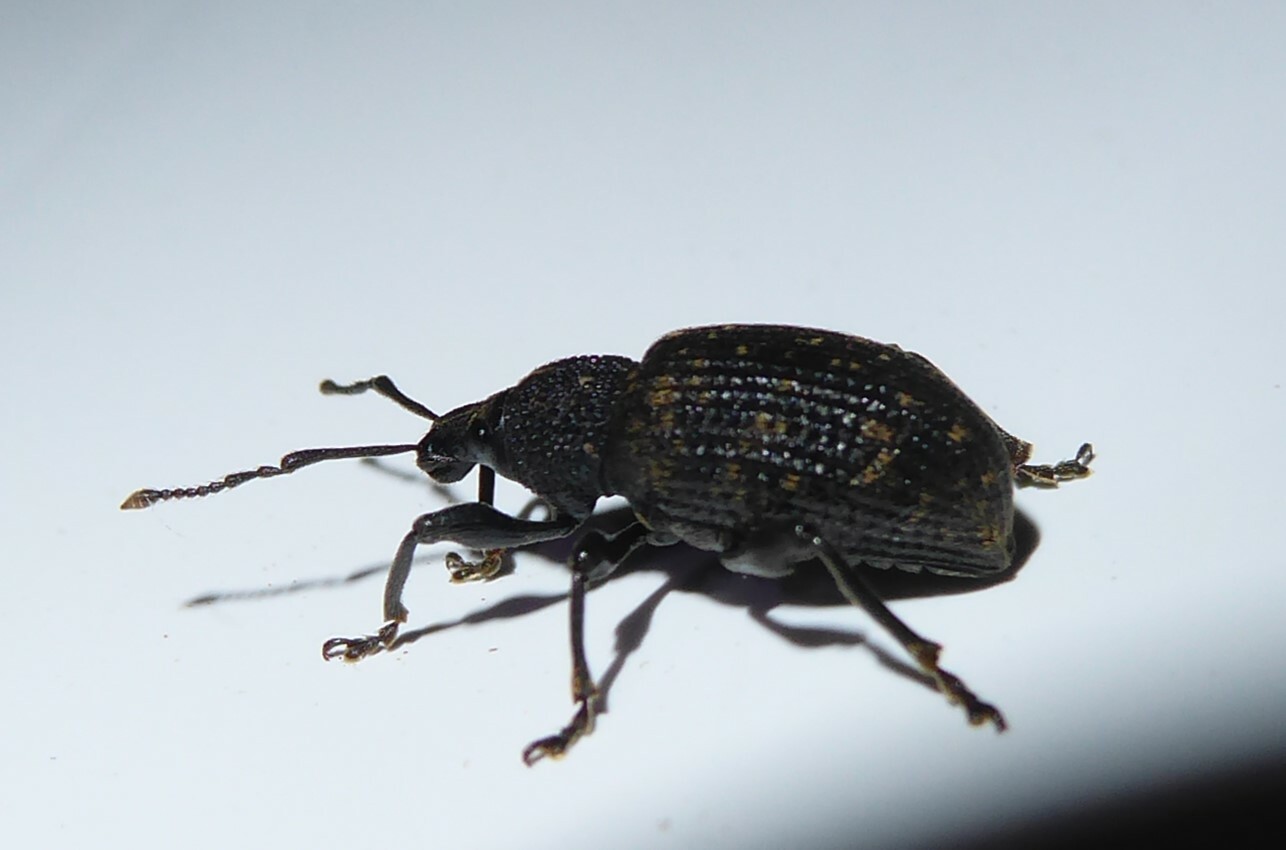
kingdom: Animalia
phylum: Arthropoda
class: Insecta
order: Coleoptera
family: Curculionidae
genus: Otiorhynchus
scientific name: Otiorhynchus sulcatus
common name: Black vine weevil
